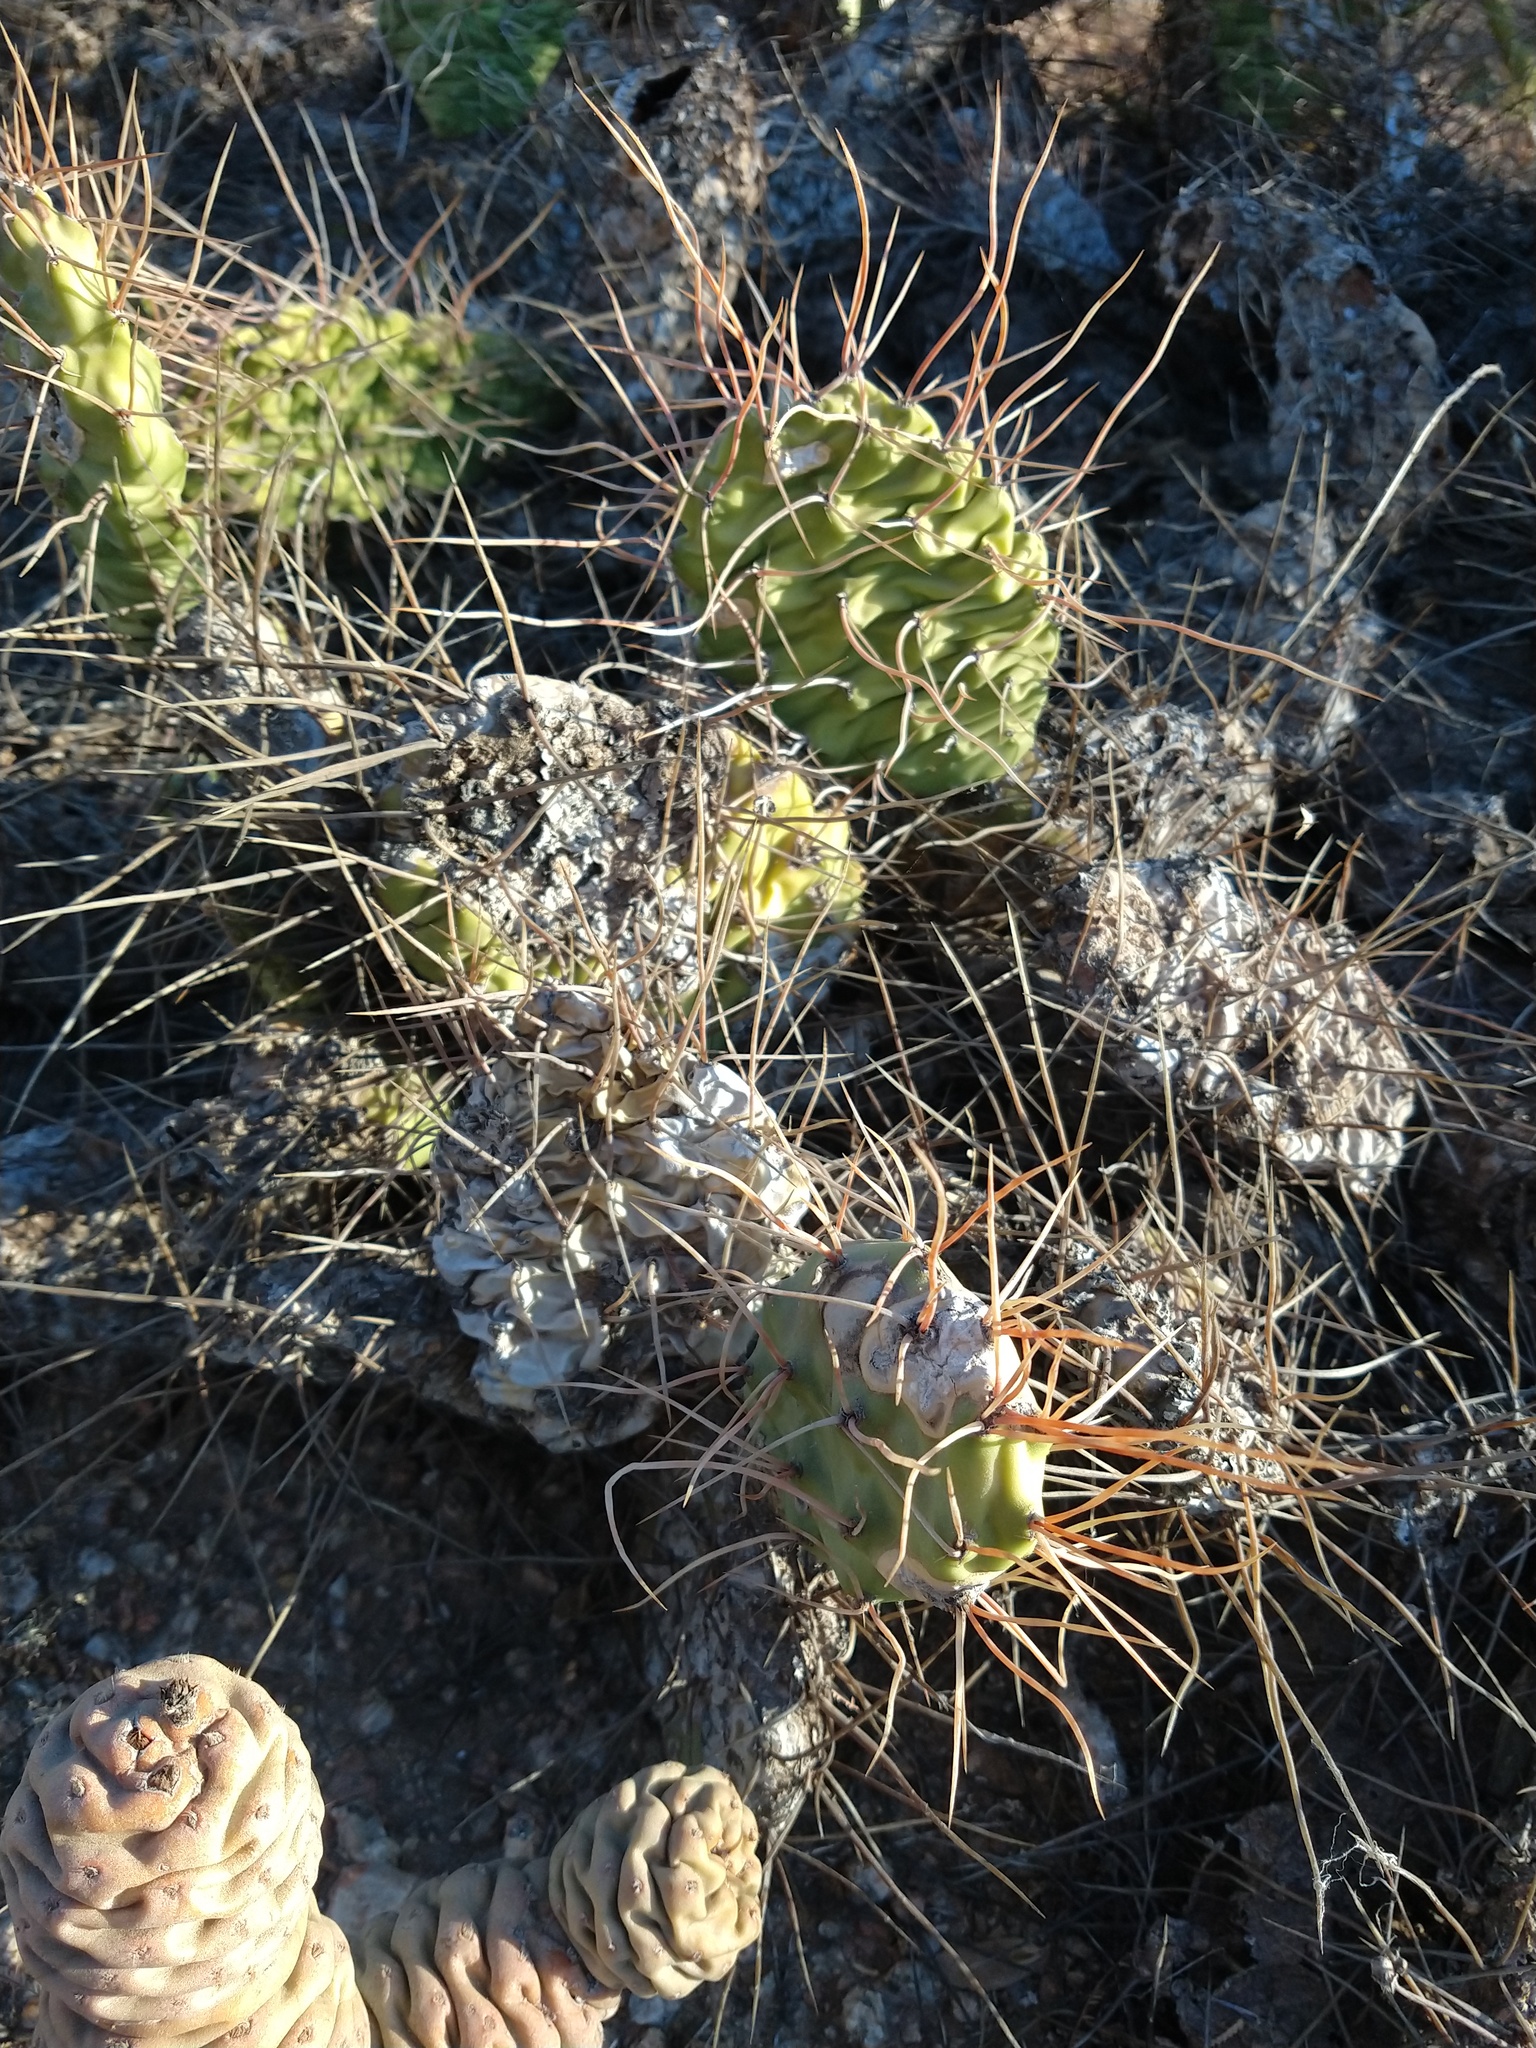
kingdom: Plantae
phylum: Tracheophyta
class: Magnoliopsida
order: Caryophyllales
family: Cactaceae
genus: Opuntia
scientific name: Opuntia sulphurea
